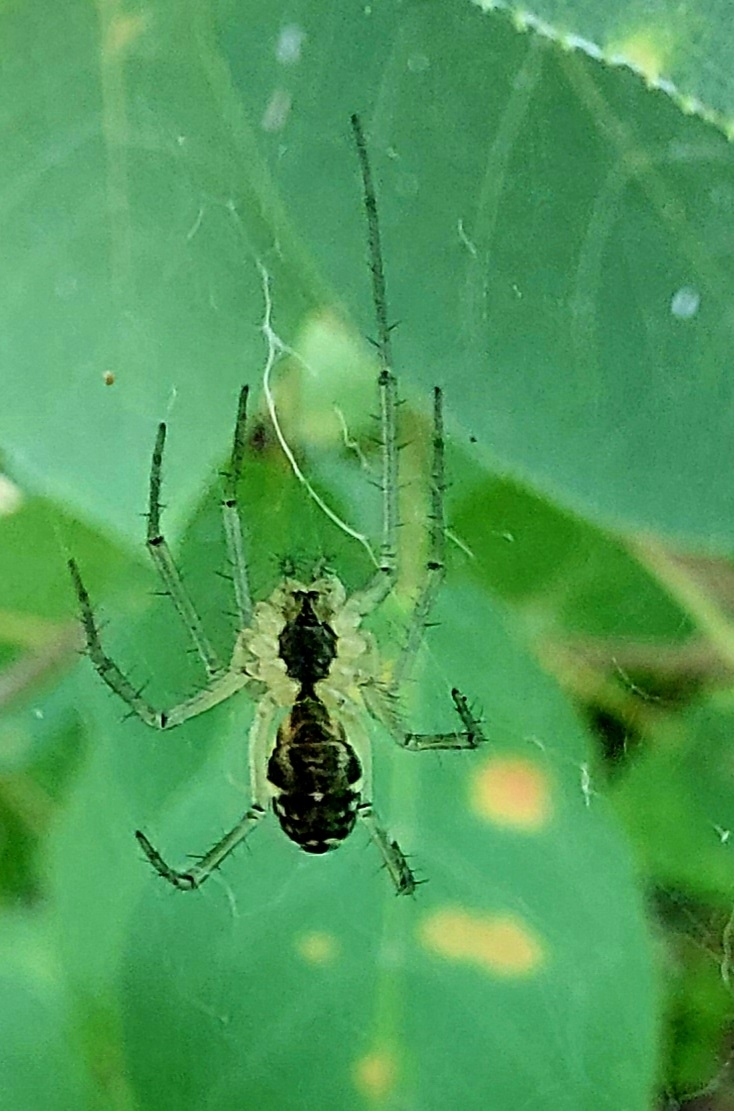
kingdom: Animalia
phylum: Arthropoda
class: Arachnida
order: Araneae
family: Linyphiidae
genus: Neriene
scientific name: Neriene peltata
